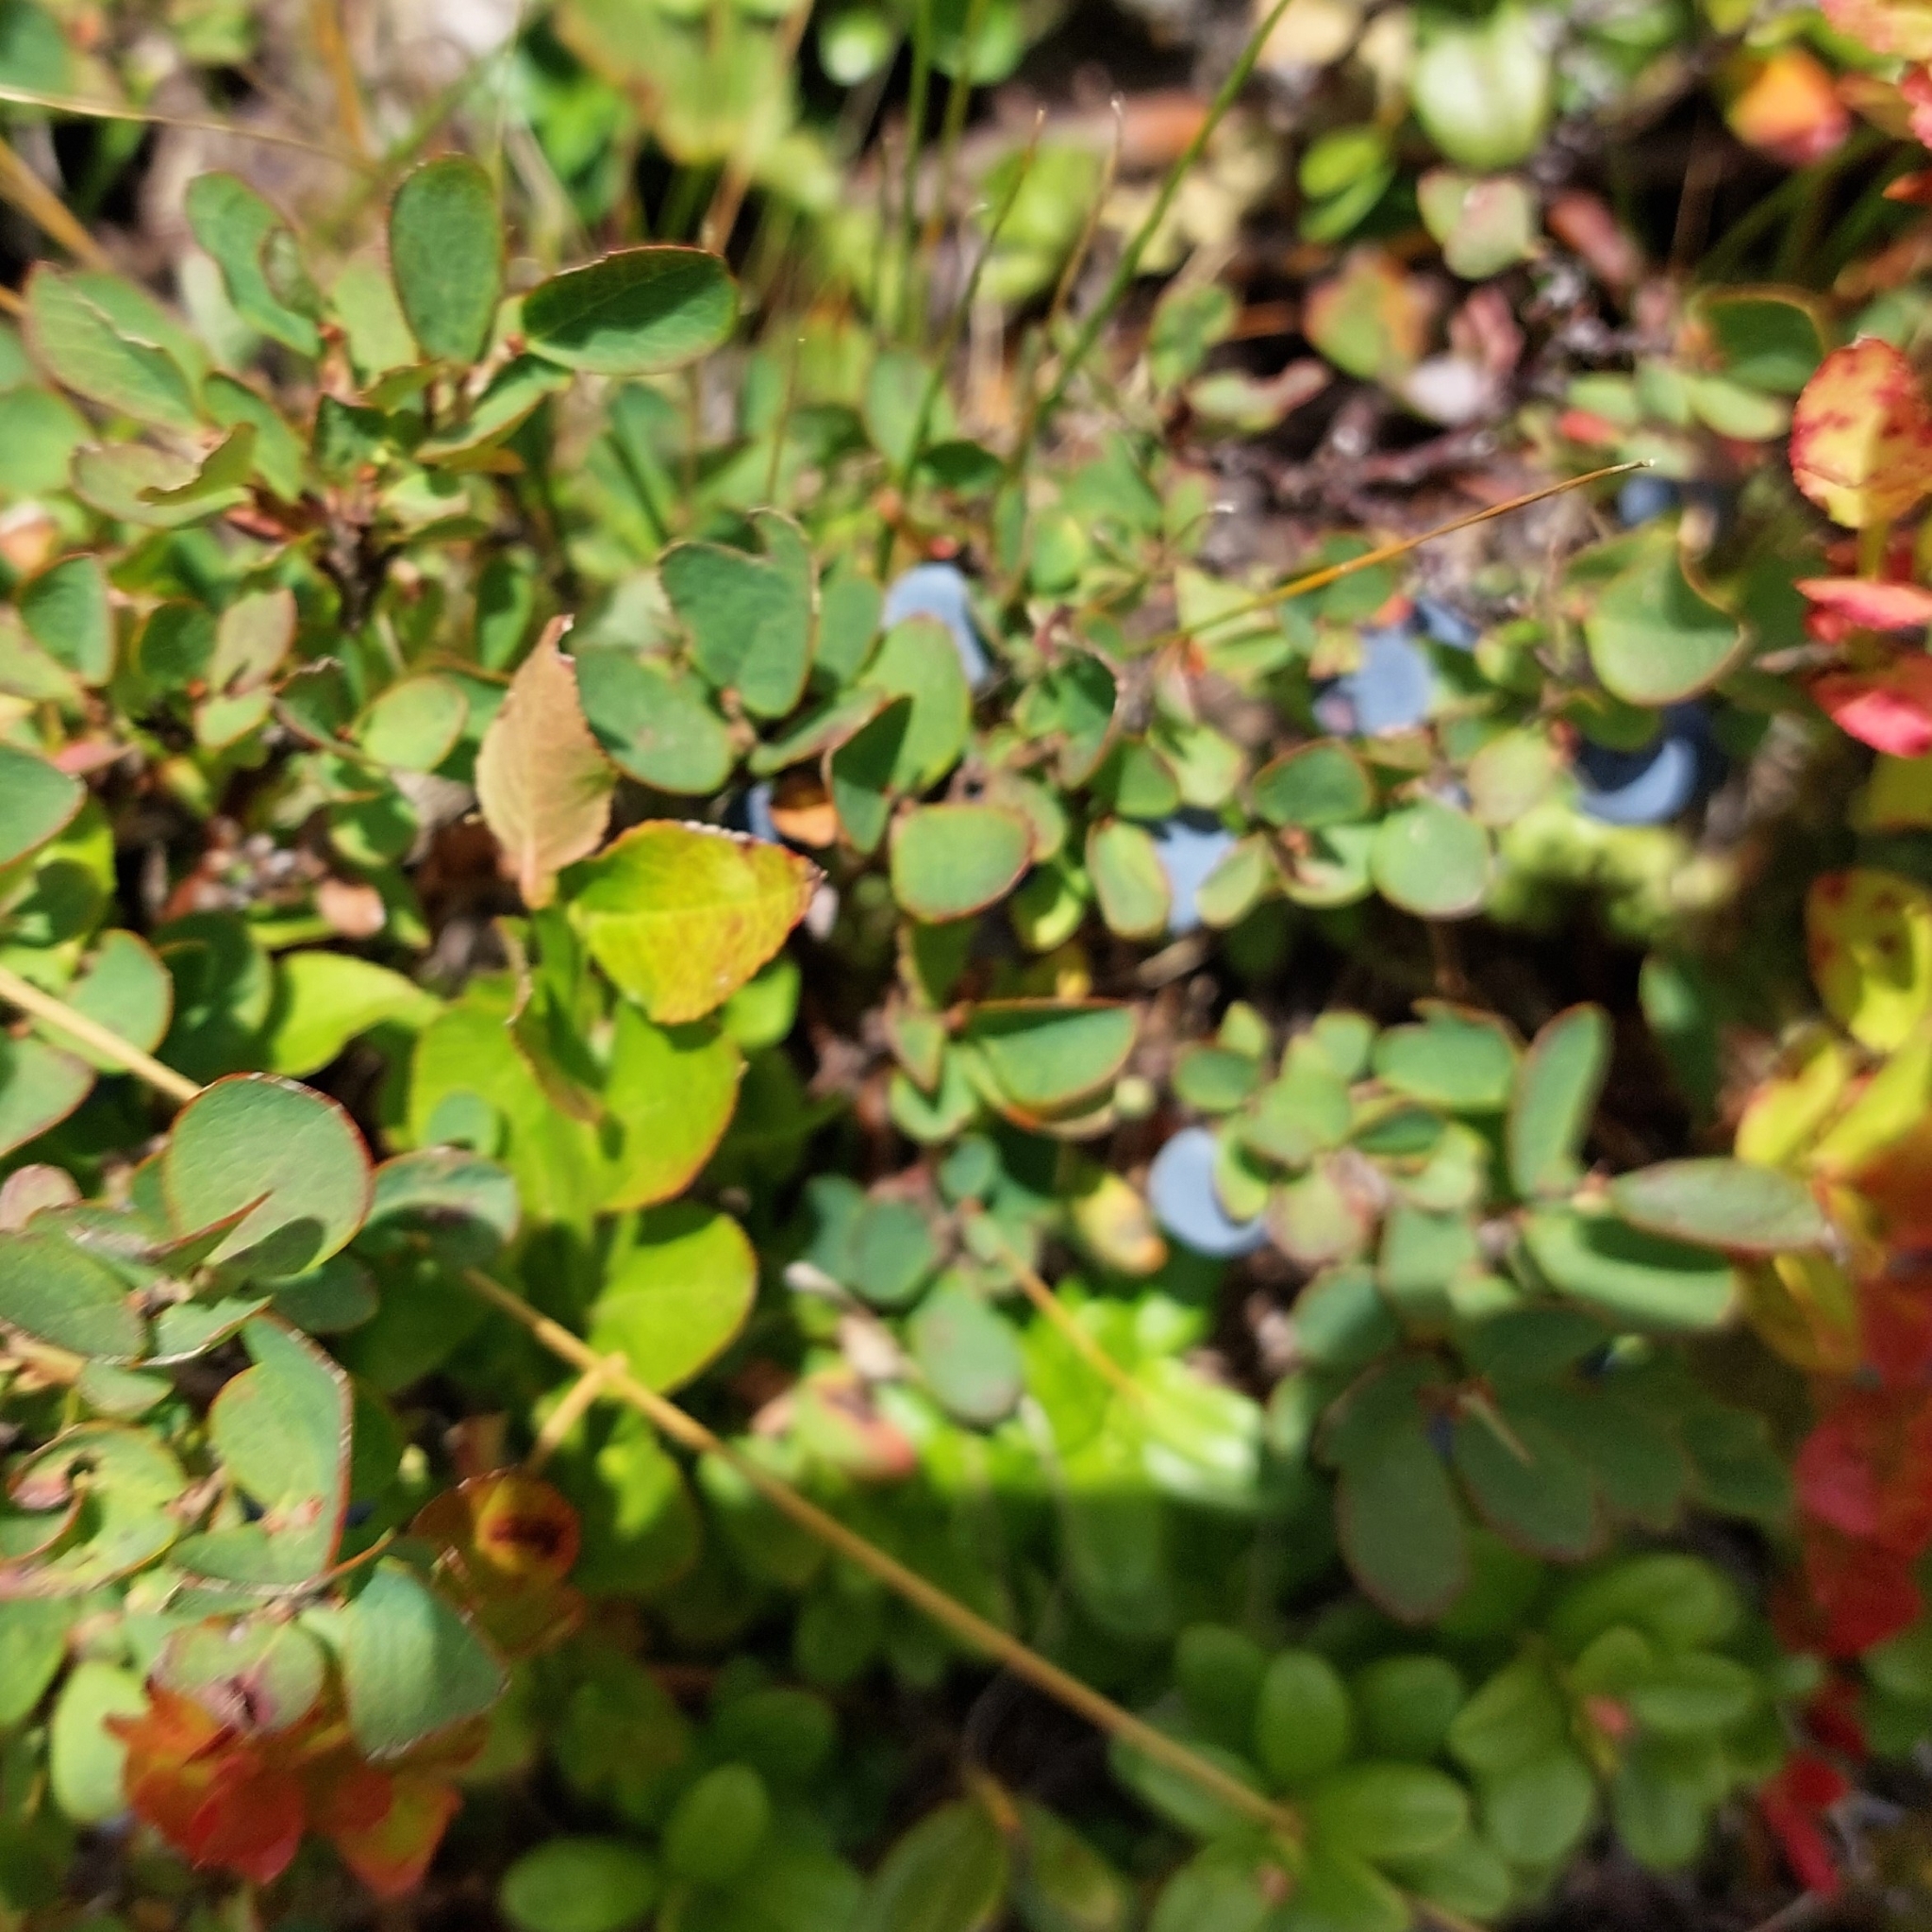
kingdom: Plantae
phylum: Tracheophyta
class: Magnoliopsida
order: Ericales
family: Ericaceae
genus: Vaccinium
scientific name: Vaccinium uliginosum
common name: Bog bilberry
